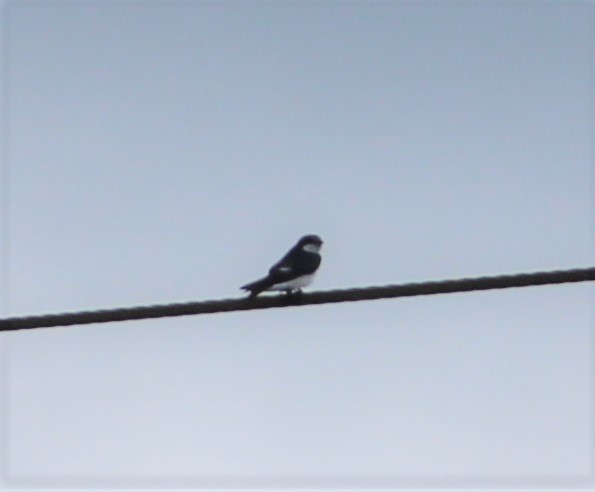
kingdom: Animalia
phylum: Chordata
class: Aves
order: Passeriformes
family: Hirundinidae
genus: Tachycineta
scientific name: Tachycineta albilinea
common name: Mangrove swallow
